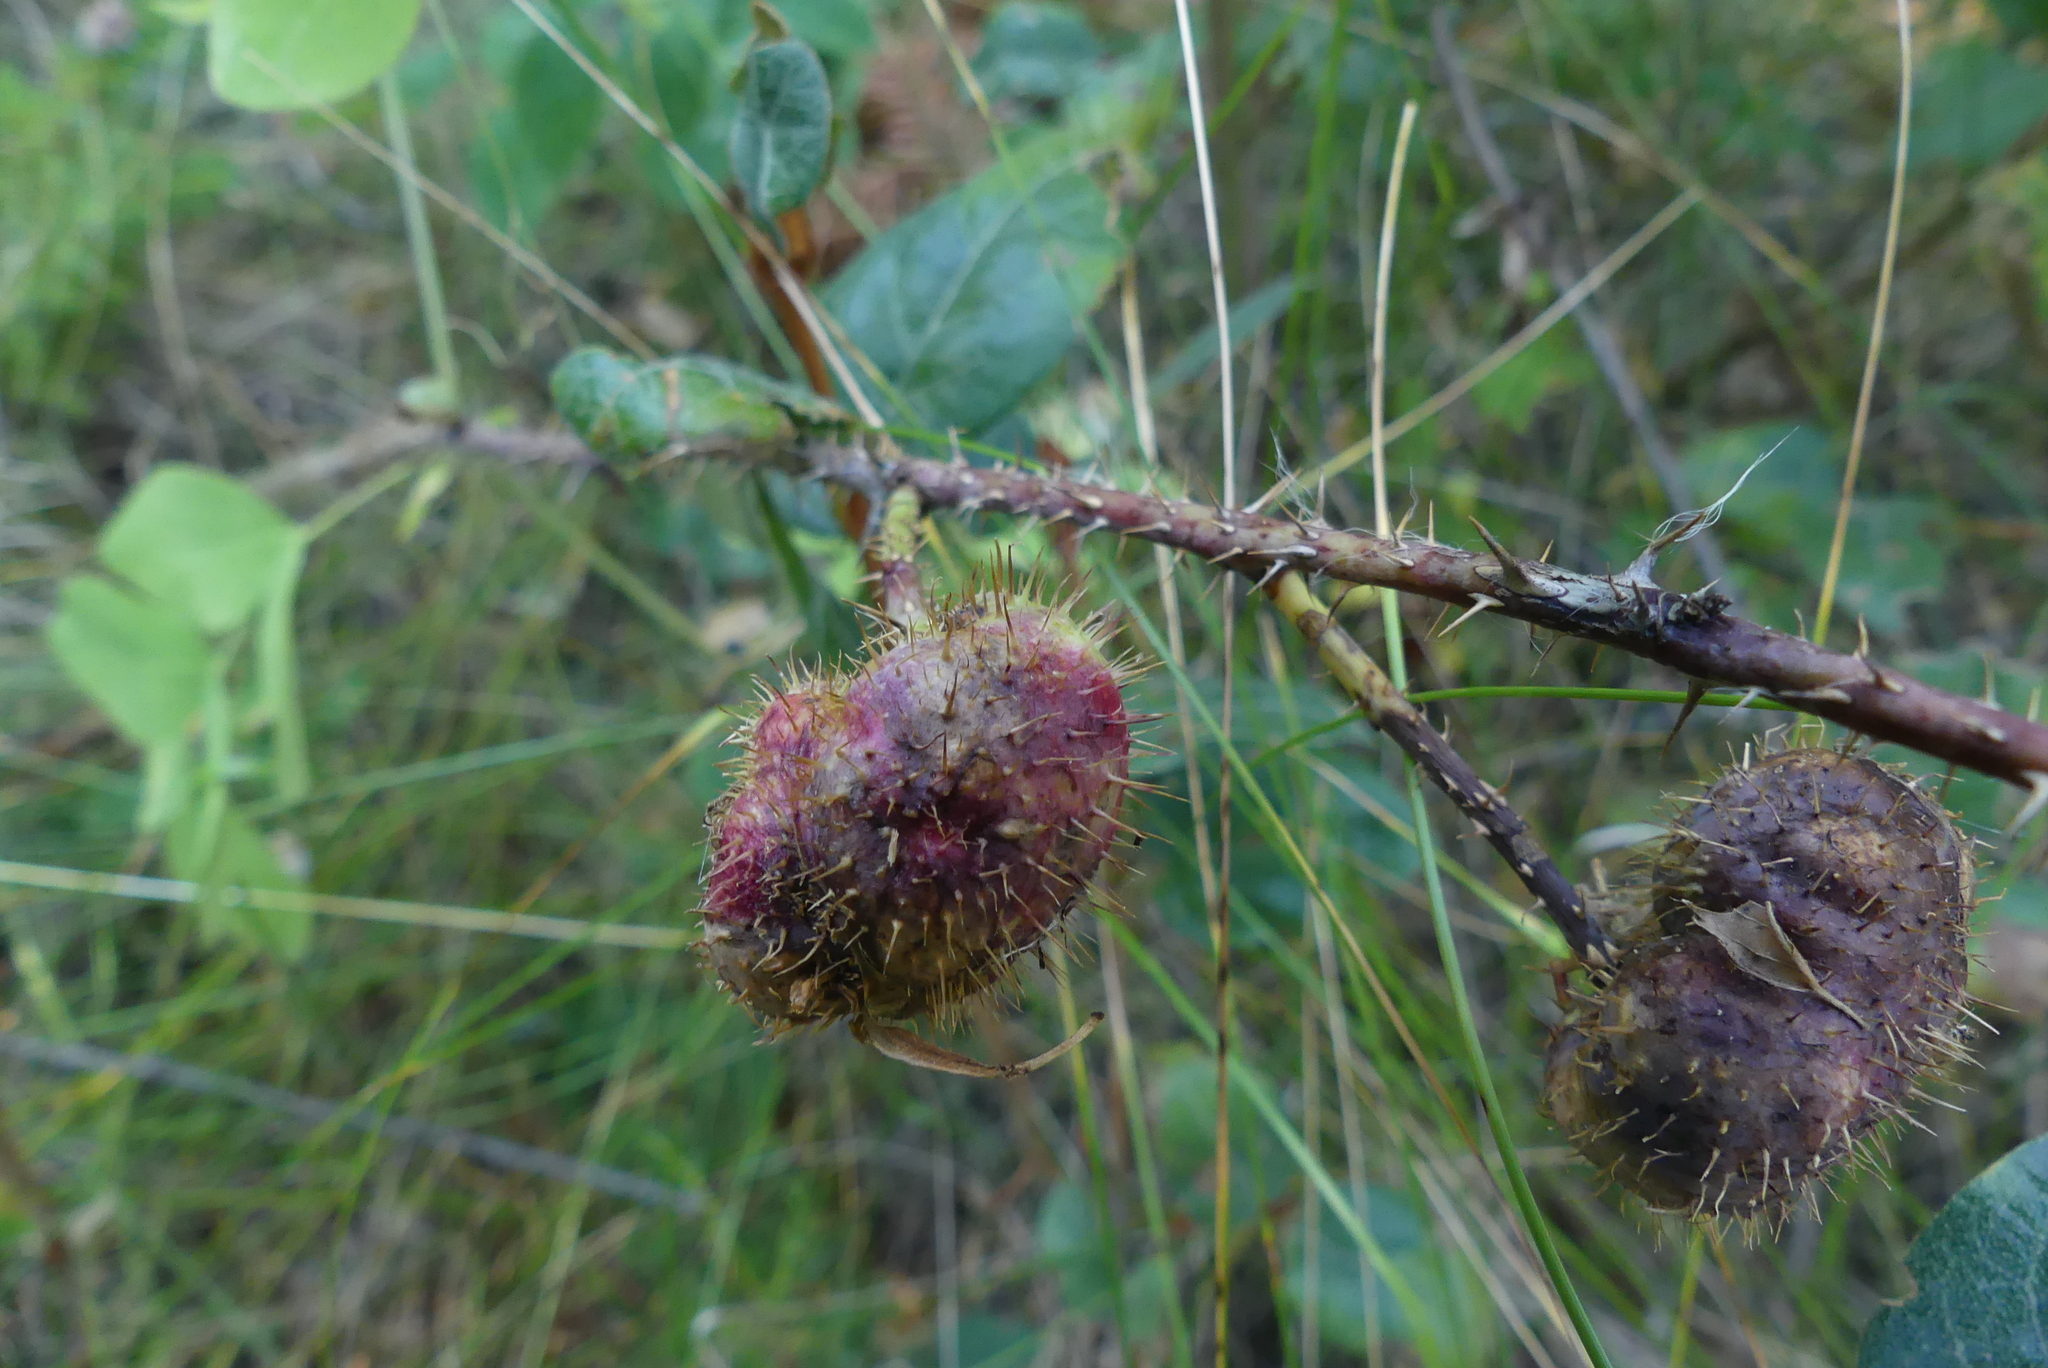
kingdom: Animalia
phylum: Arthropoda
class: Insecta
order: Hymenoptera
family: Cynipidae
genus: Diplolepis
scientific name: Diplolepis spinosa
